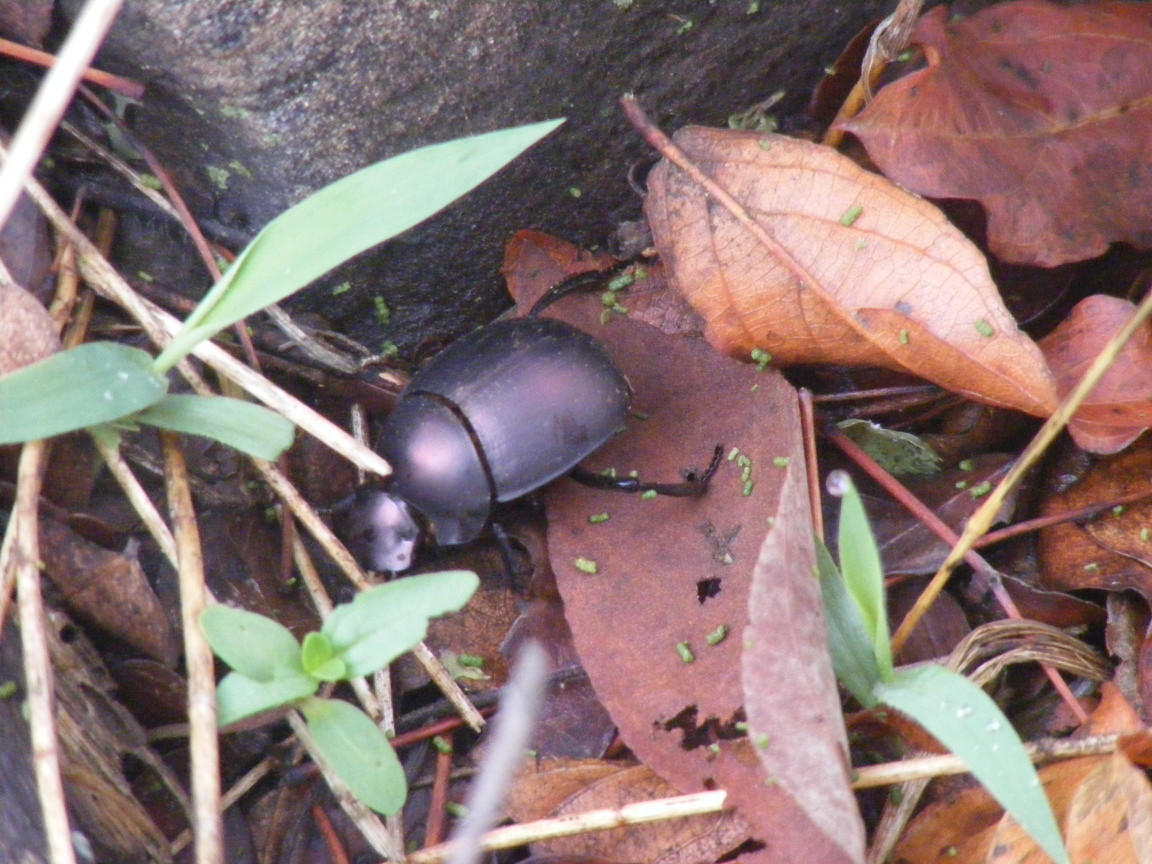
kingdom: Animalia
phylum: Arthropoda
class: Insecta
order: Coleoptera
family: Scarabaeidae
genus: Chalconotus
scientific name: Chalconotus convexus
